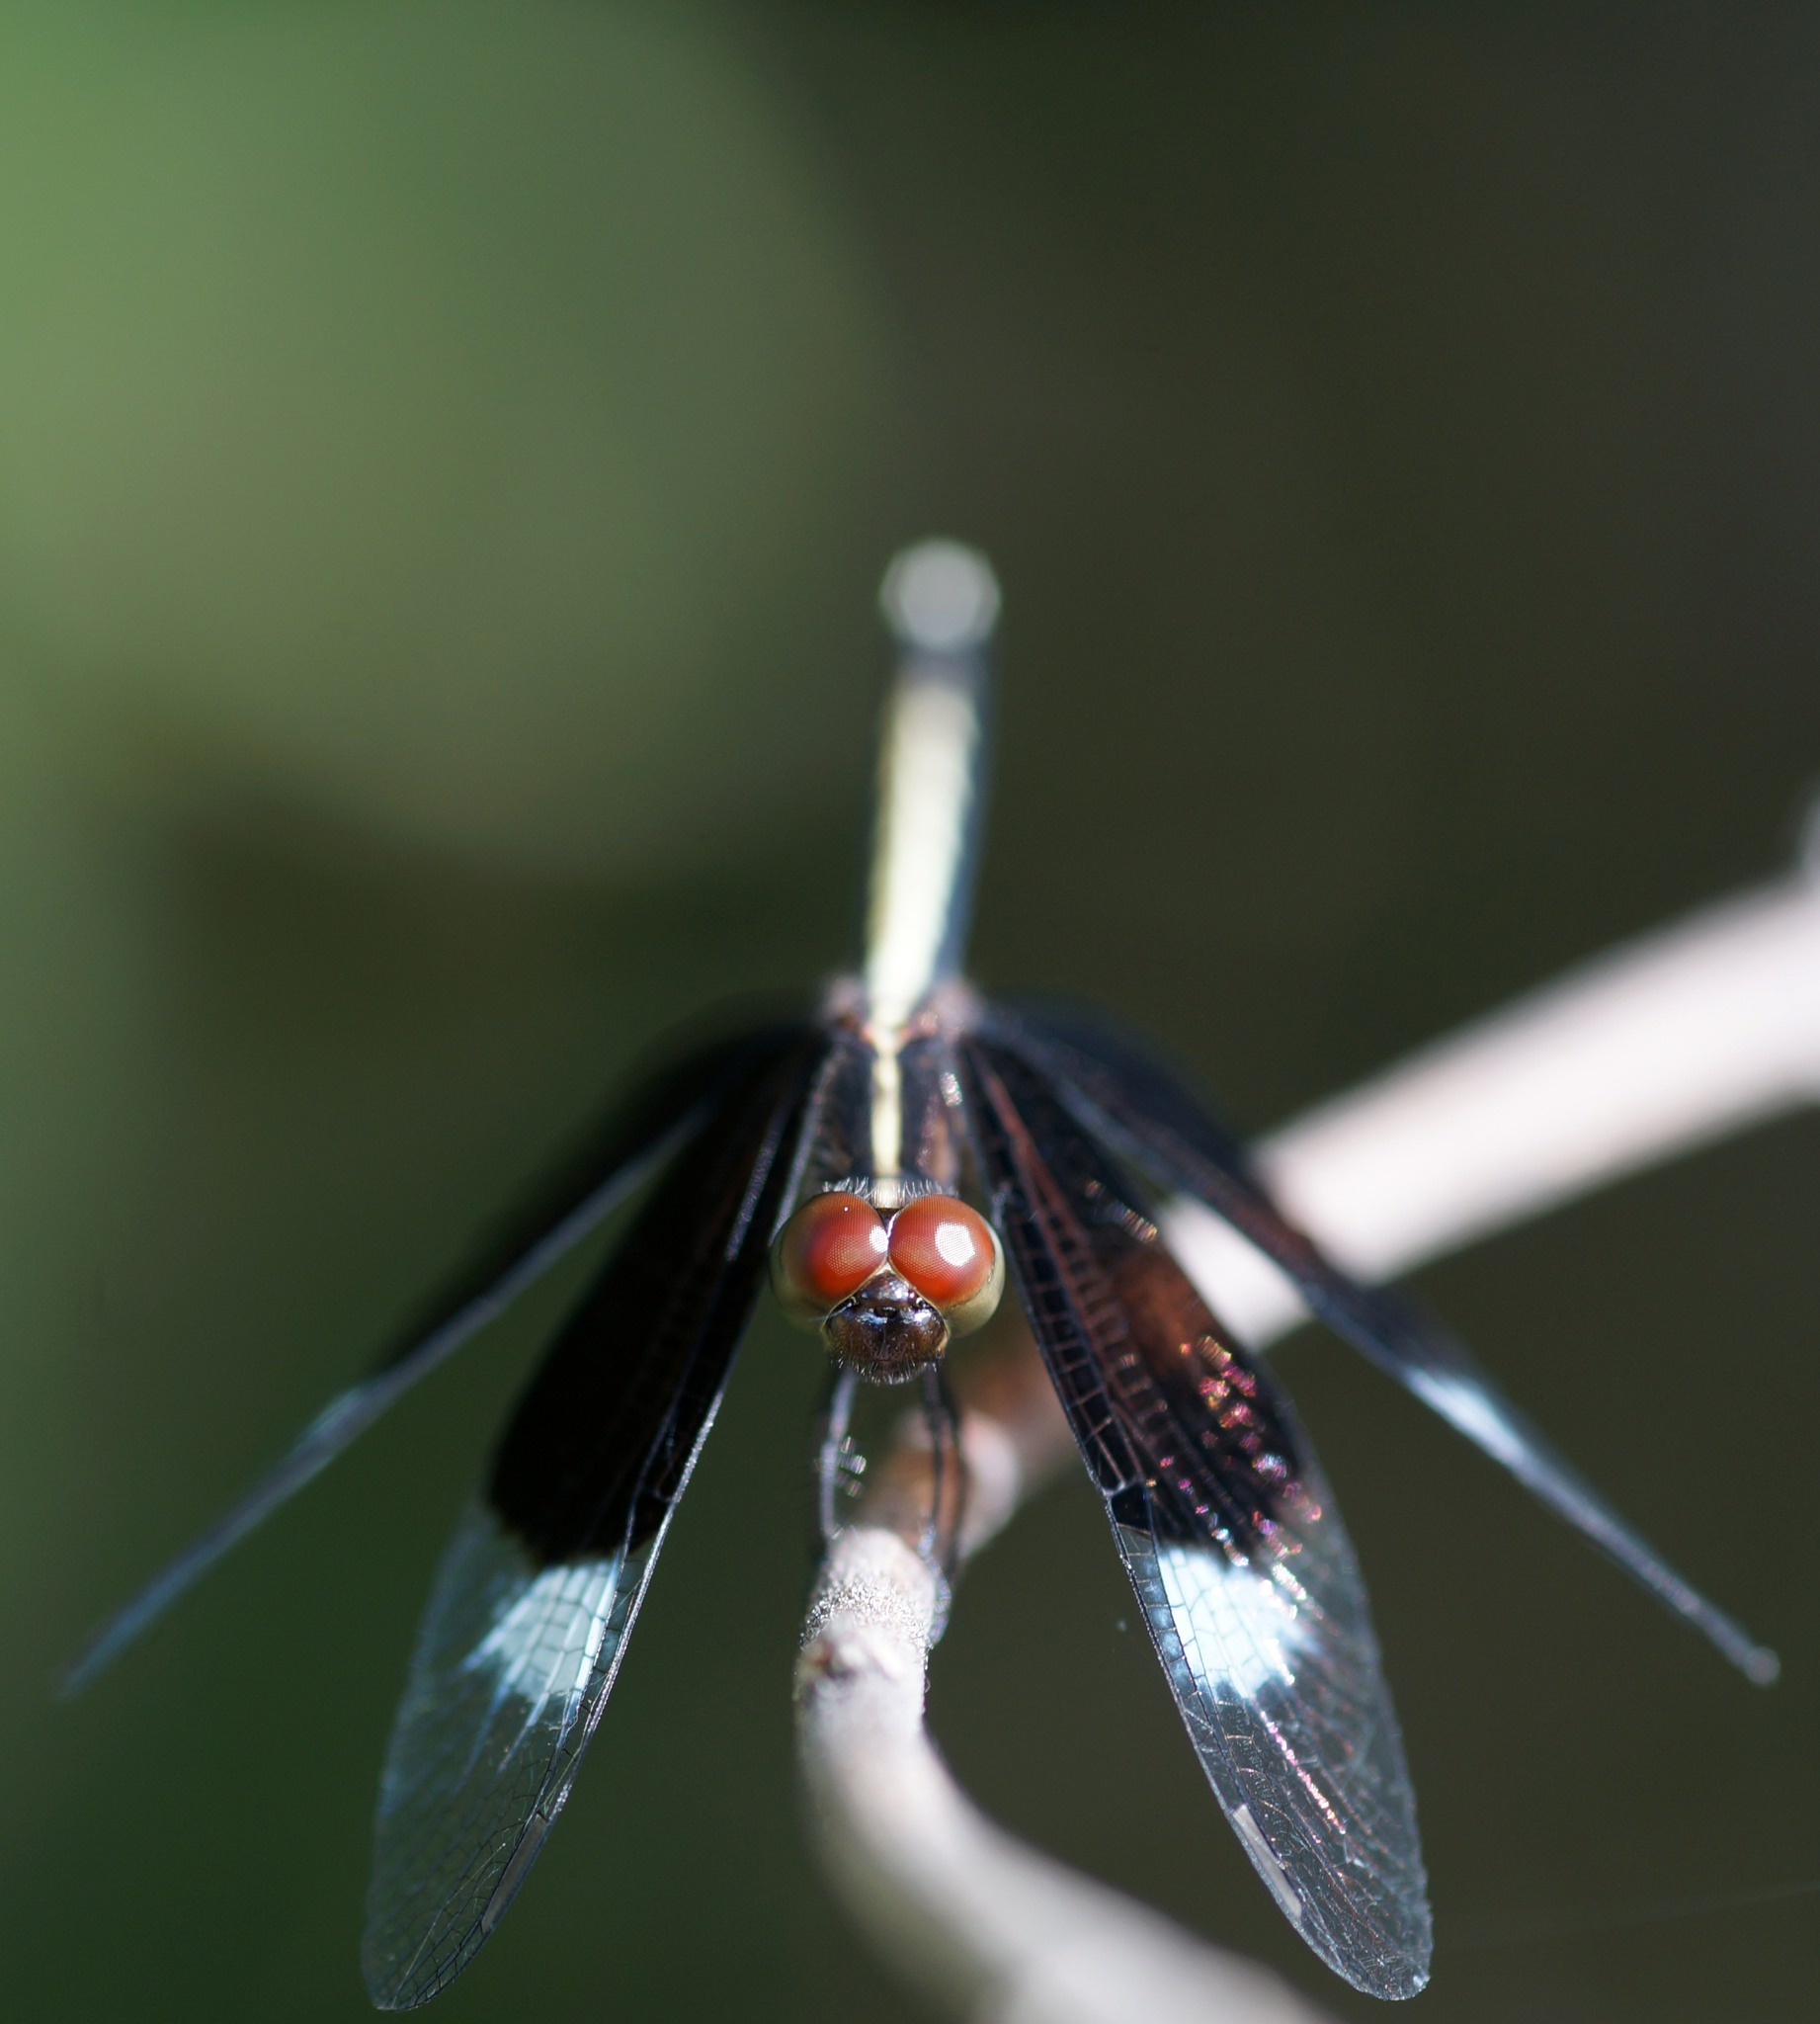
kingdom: Animalia
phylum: Arthropoda
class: Insecta
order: Odonata
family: Libellulidae
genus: Neurothemis
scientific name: Neurothemis tullia
